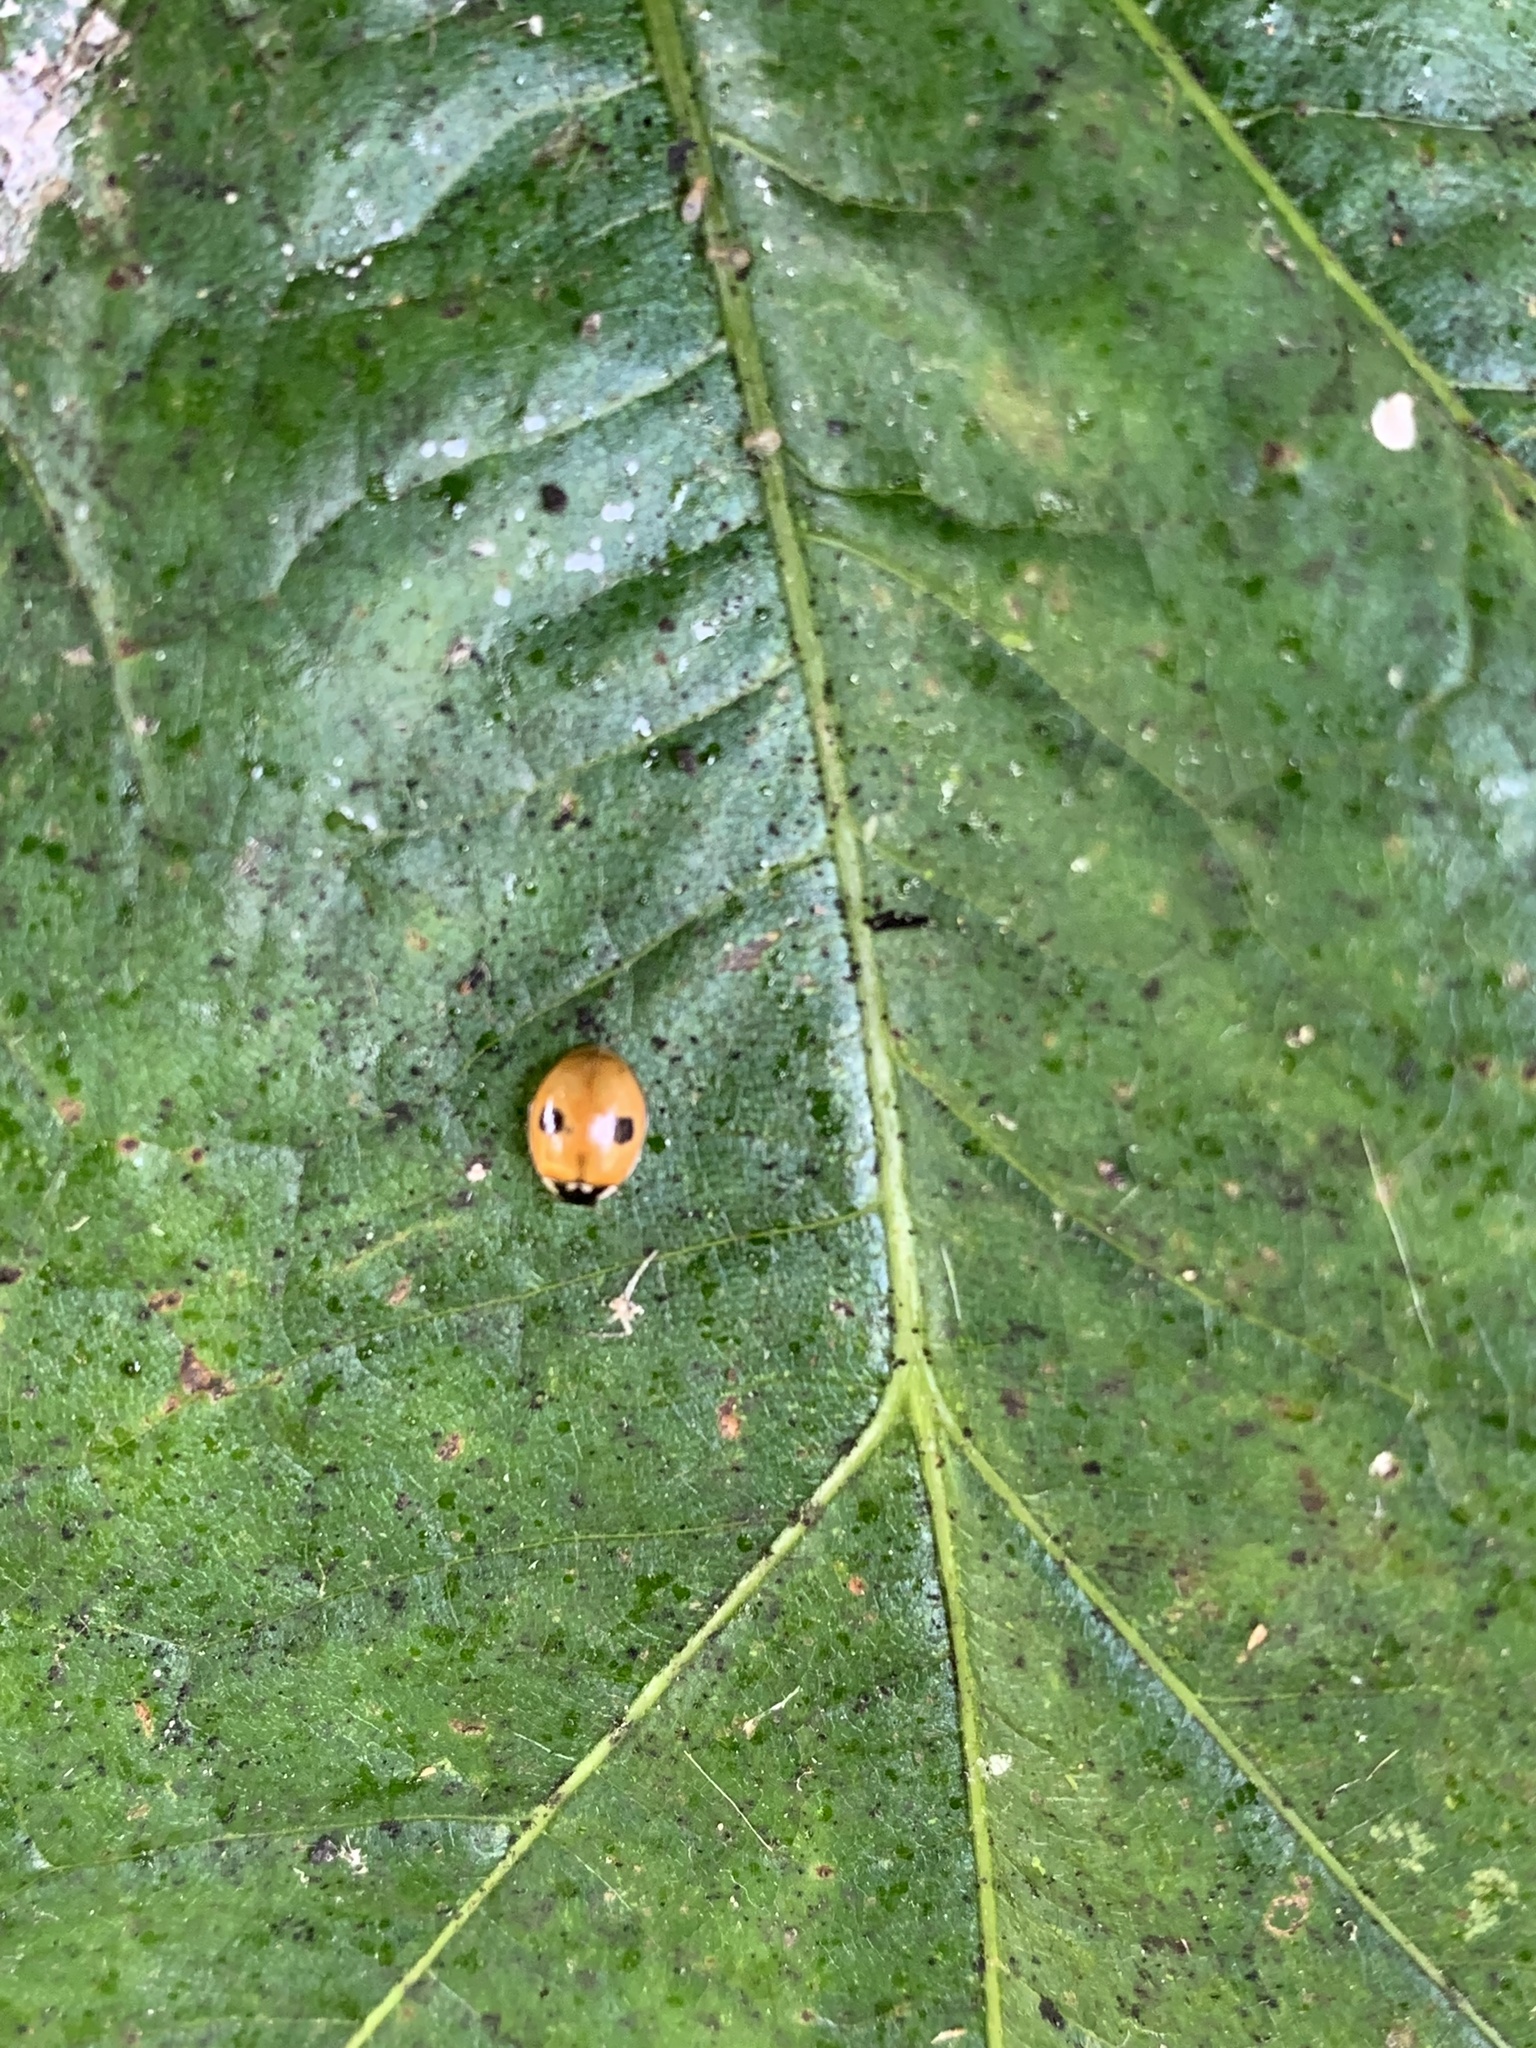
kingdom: Animalia
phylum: Arthropoda
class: Insecta
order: Coleoptera
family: Coccinellidae
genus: Adalia
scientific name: Adalia bipunctata
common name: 2-spot ladybird
